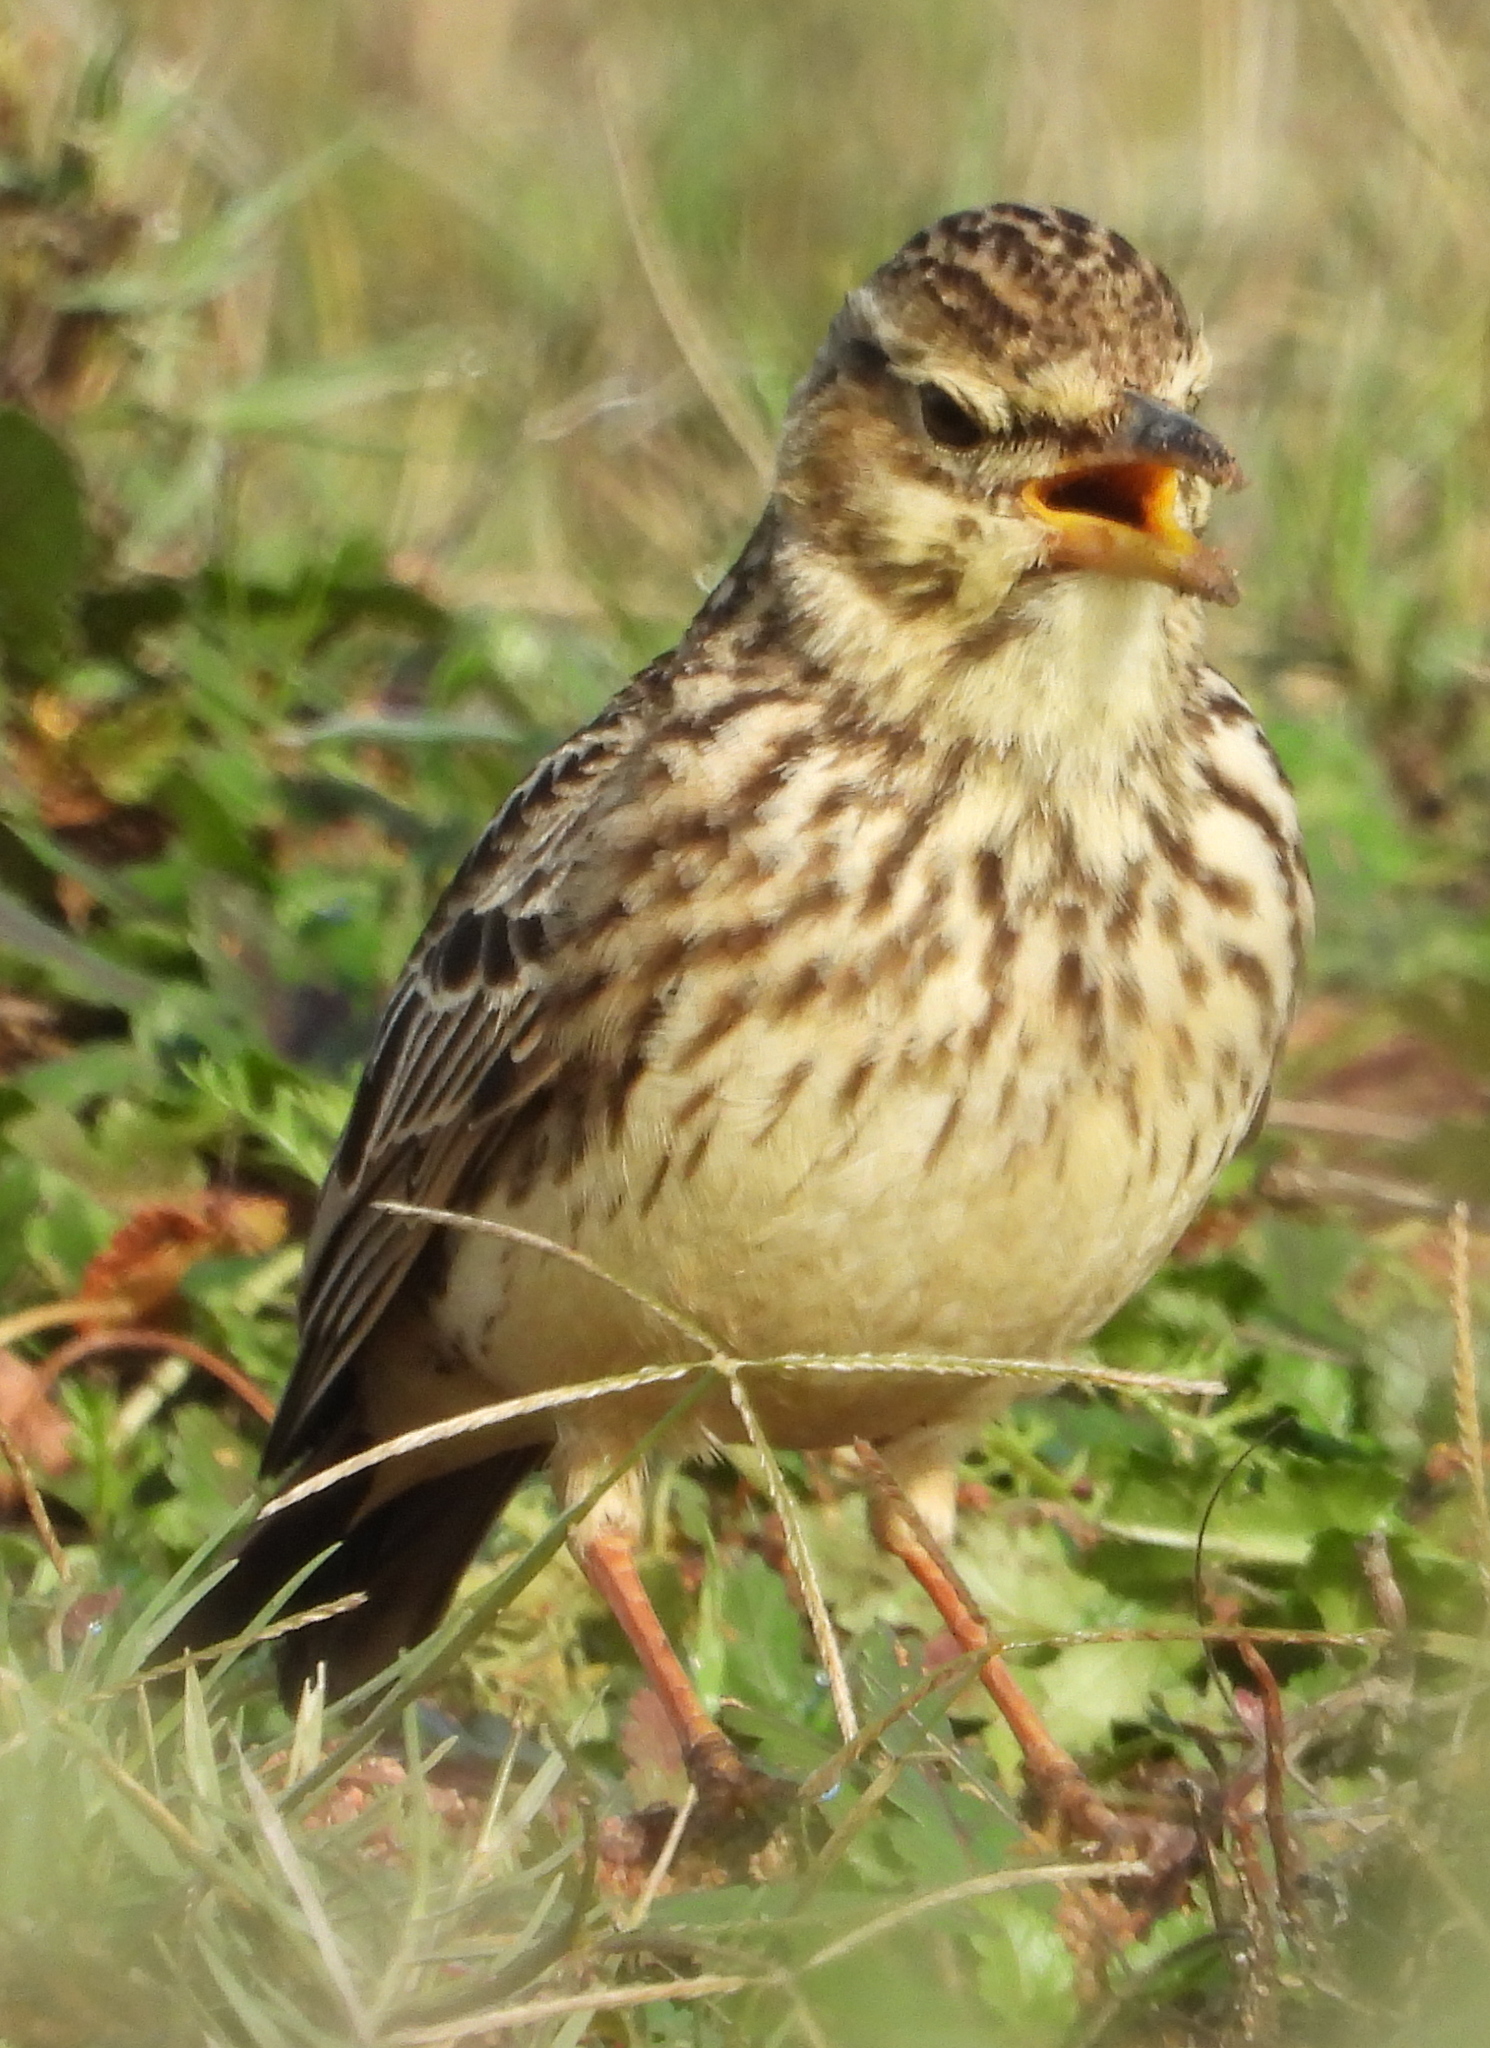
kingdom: Animalia
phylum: Chordata
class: Aves
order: Passeriformes
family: Alaudidae
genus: Galerida
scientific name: Galerida magnirostris
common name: Large-billed lark
